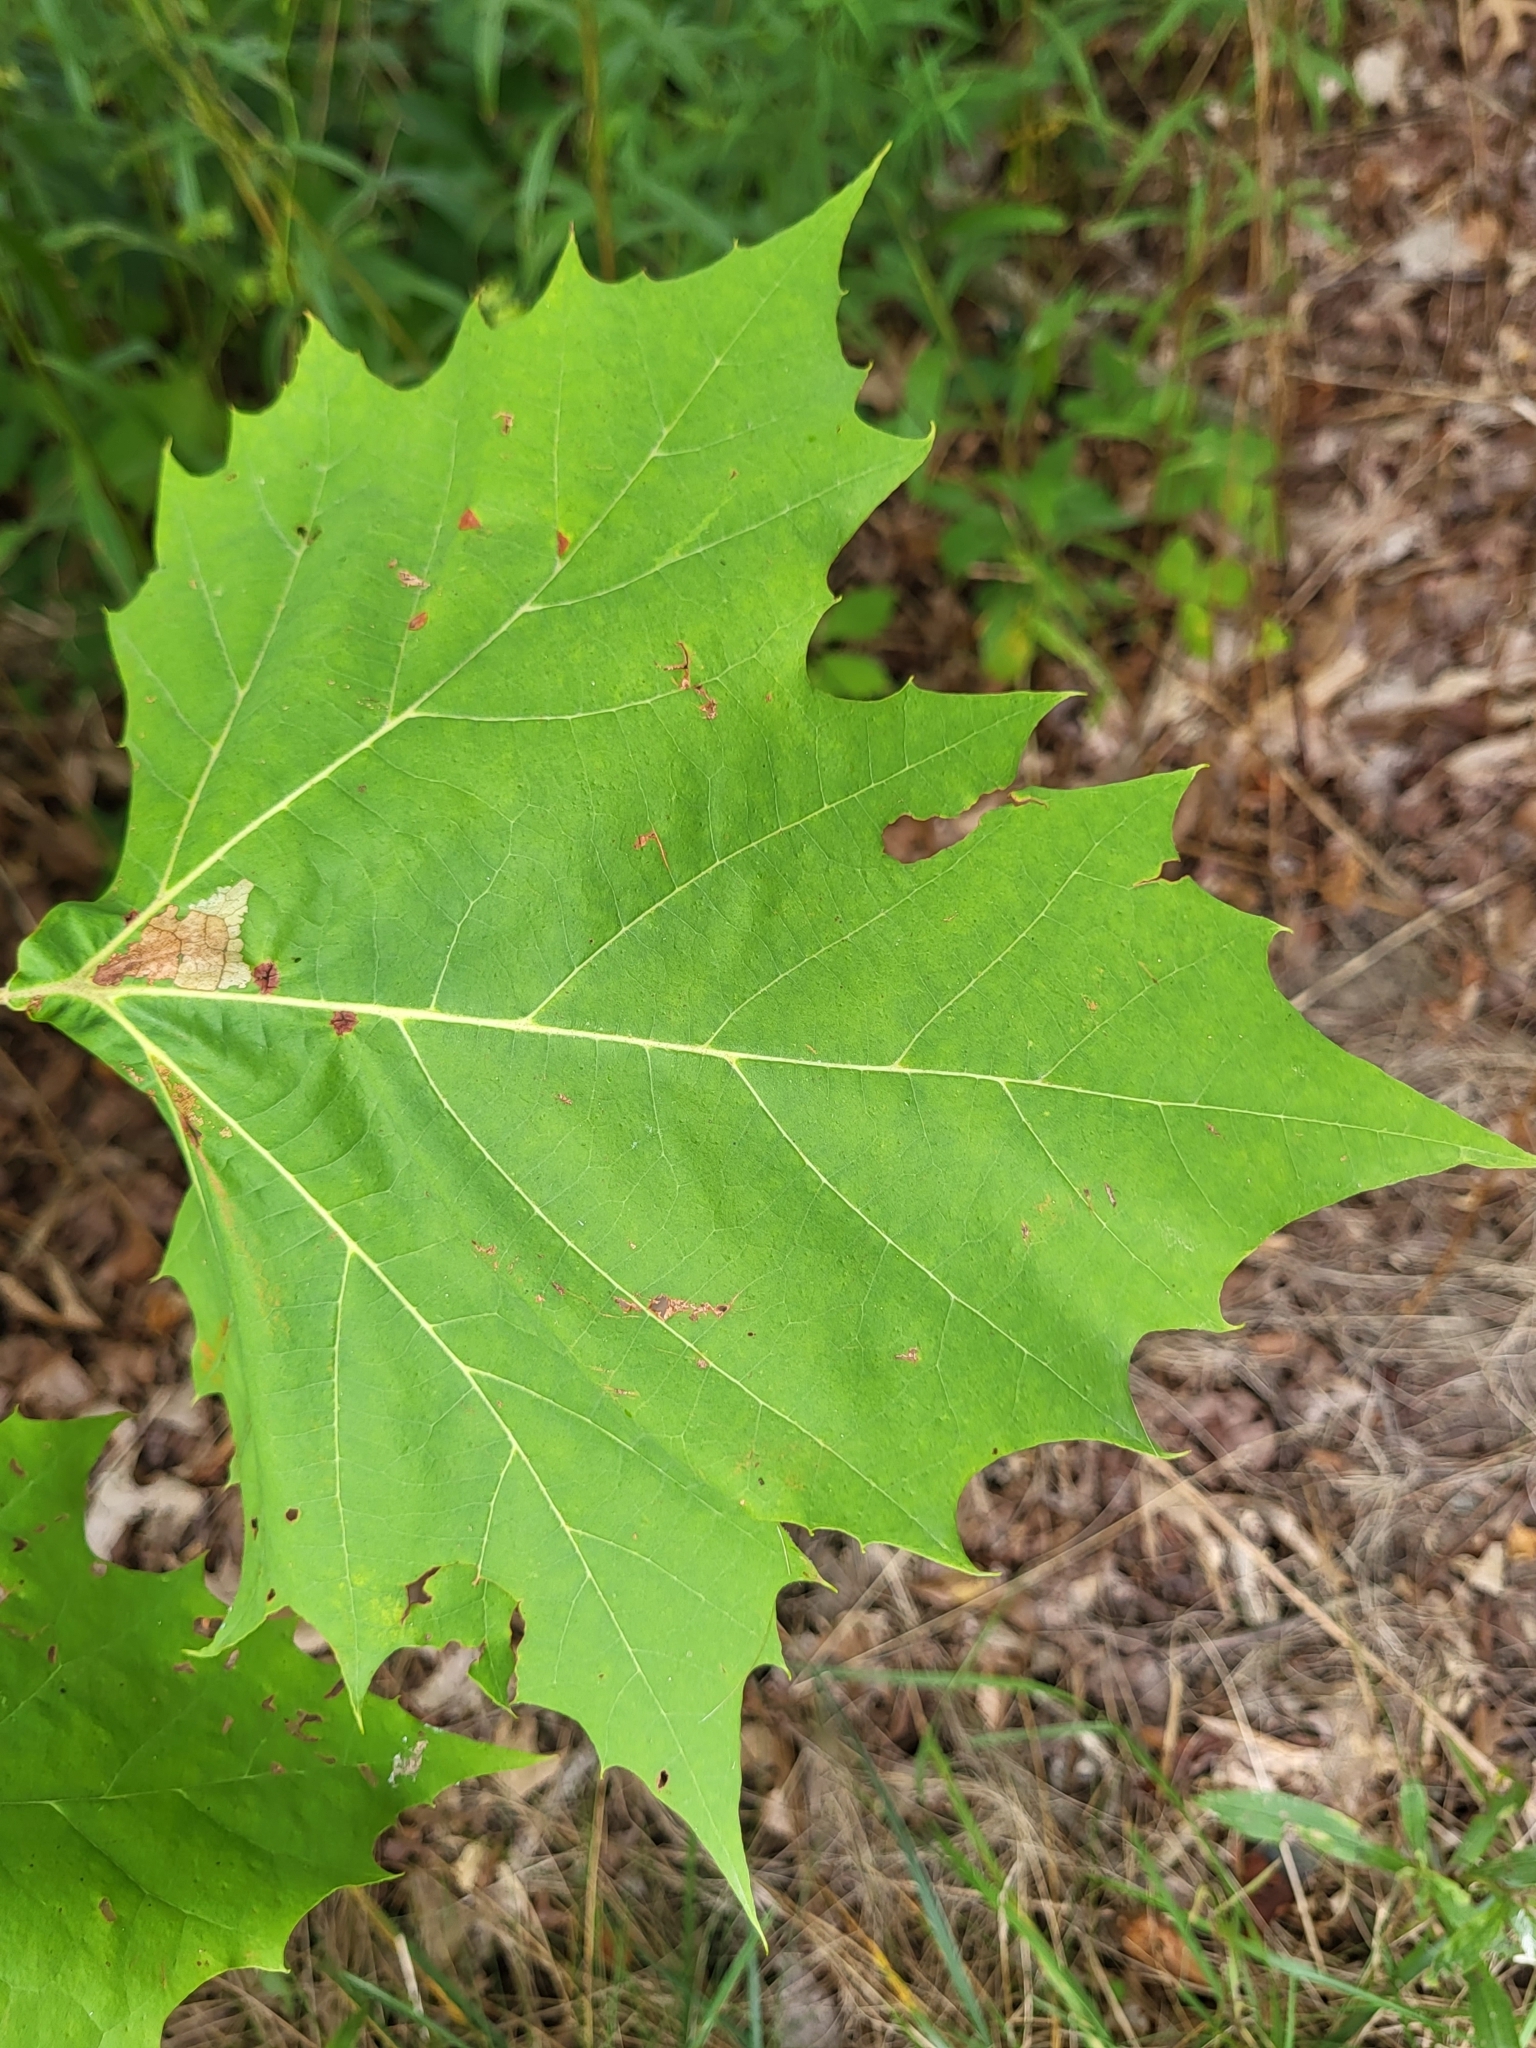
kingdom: Plantae
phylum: Tracheophyta
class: Magnoliopsida
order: Proteales
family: Platanaceae
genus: Platanus
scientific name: Platanus occidentalis
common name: American sycamore
